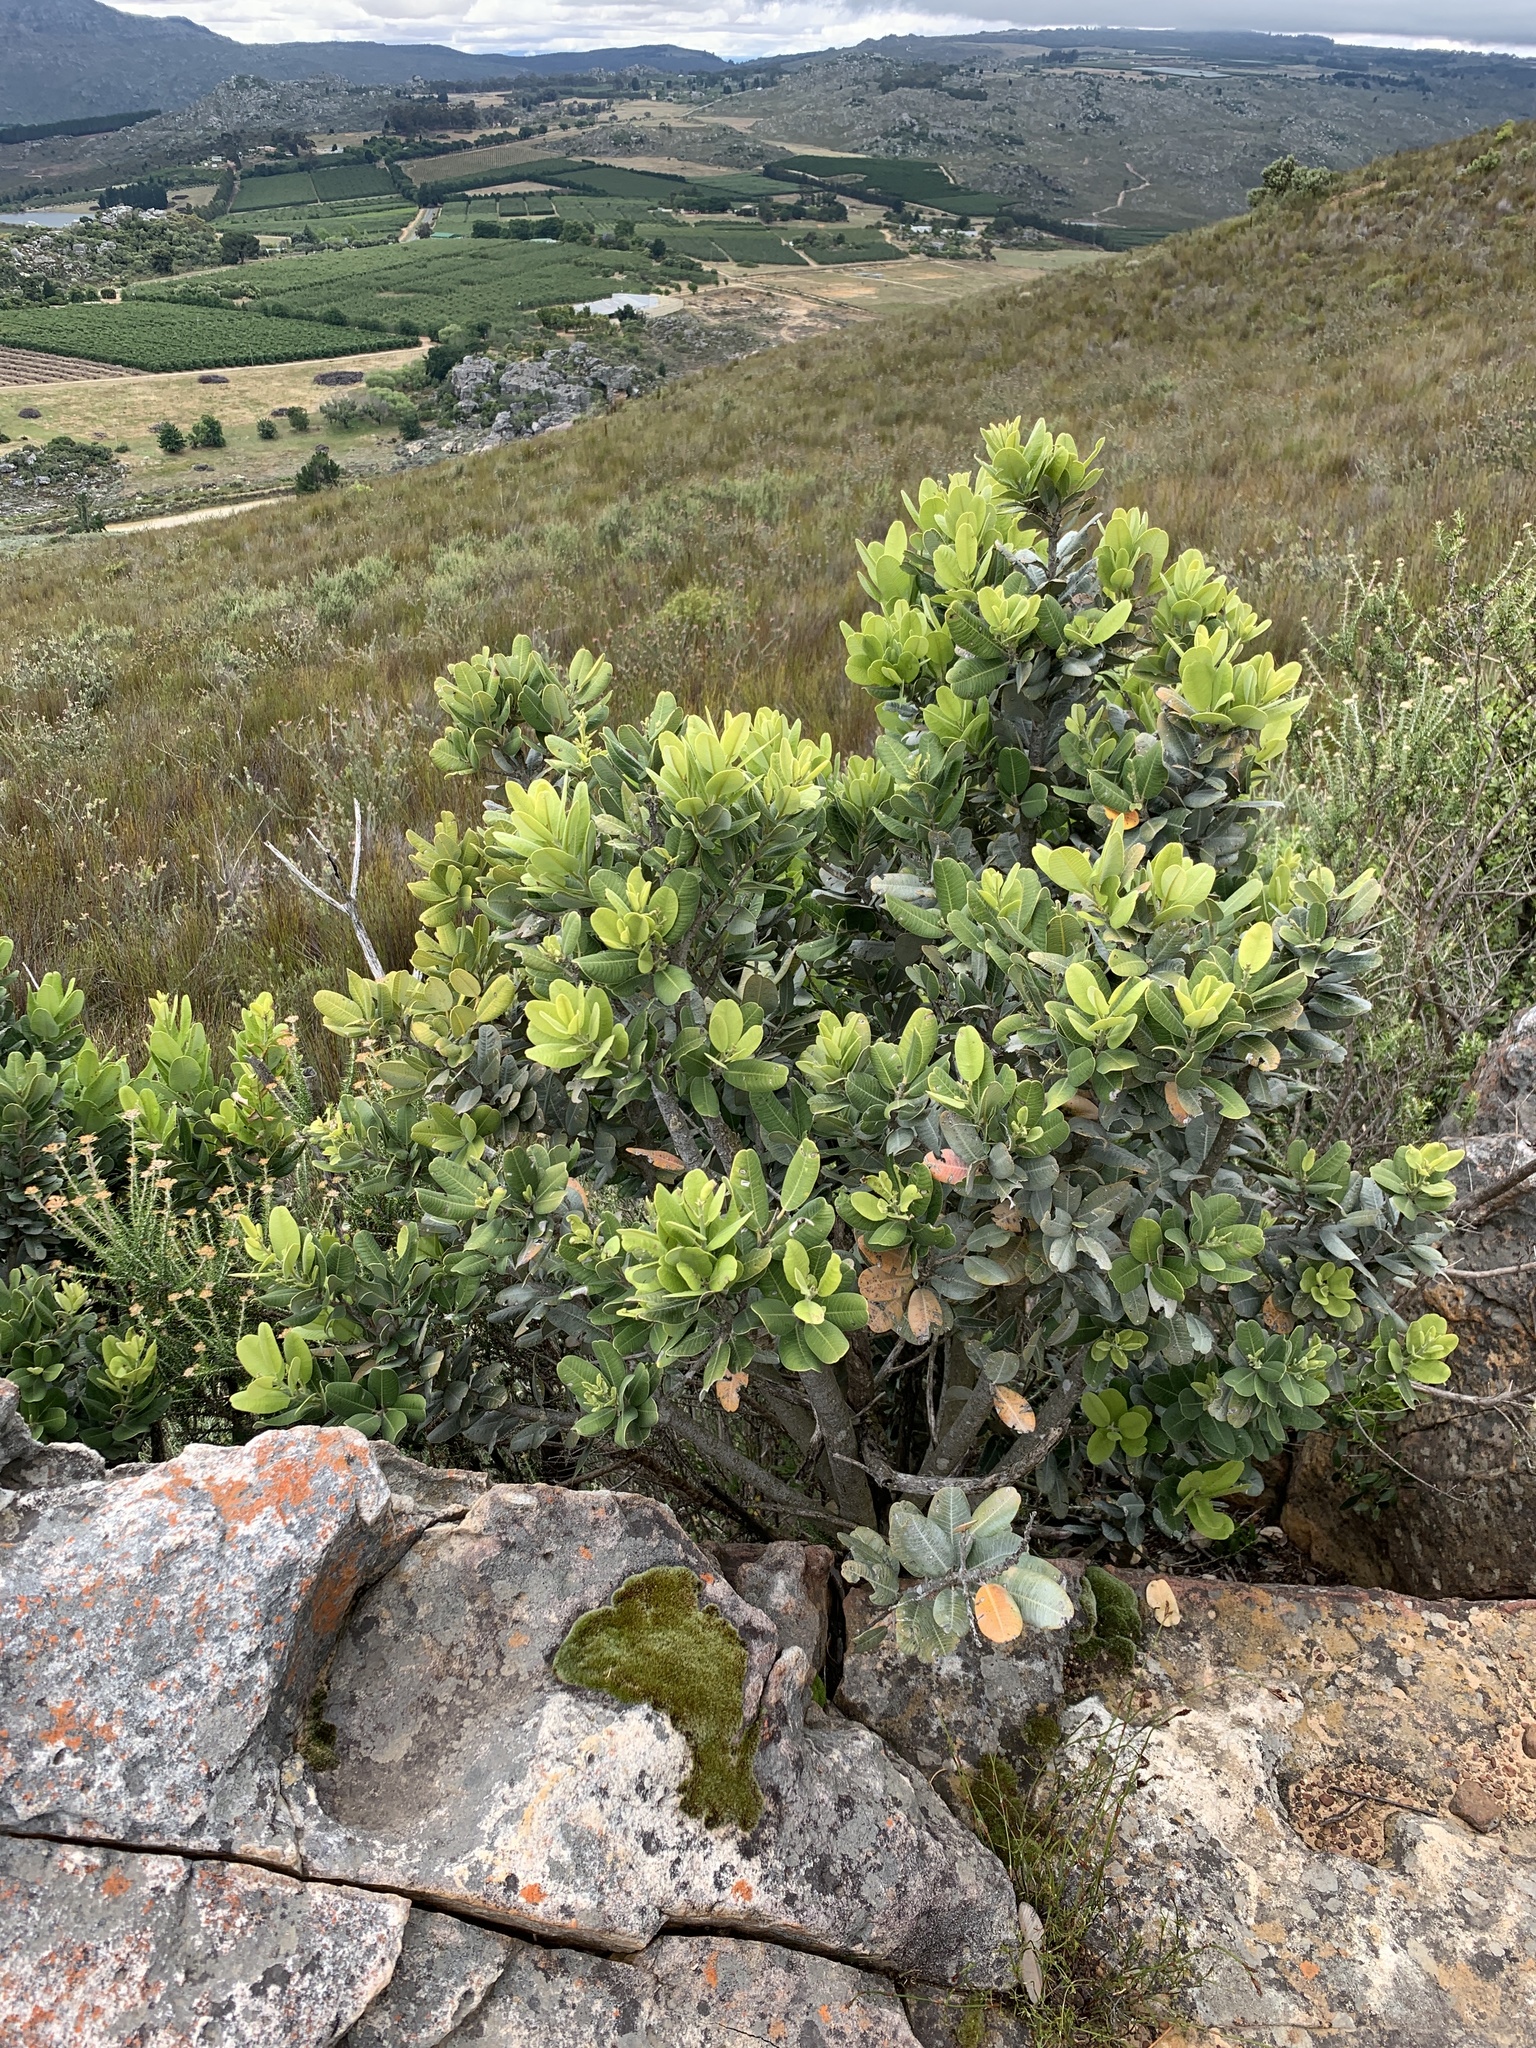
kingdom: Plantae
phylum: Tracheophyta
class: Magnoliopsida
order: Sapindales
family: Anacardiaceae
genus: Heeria
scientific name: Heeria argentea
